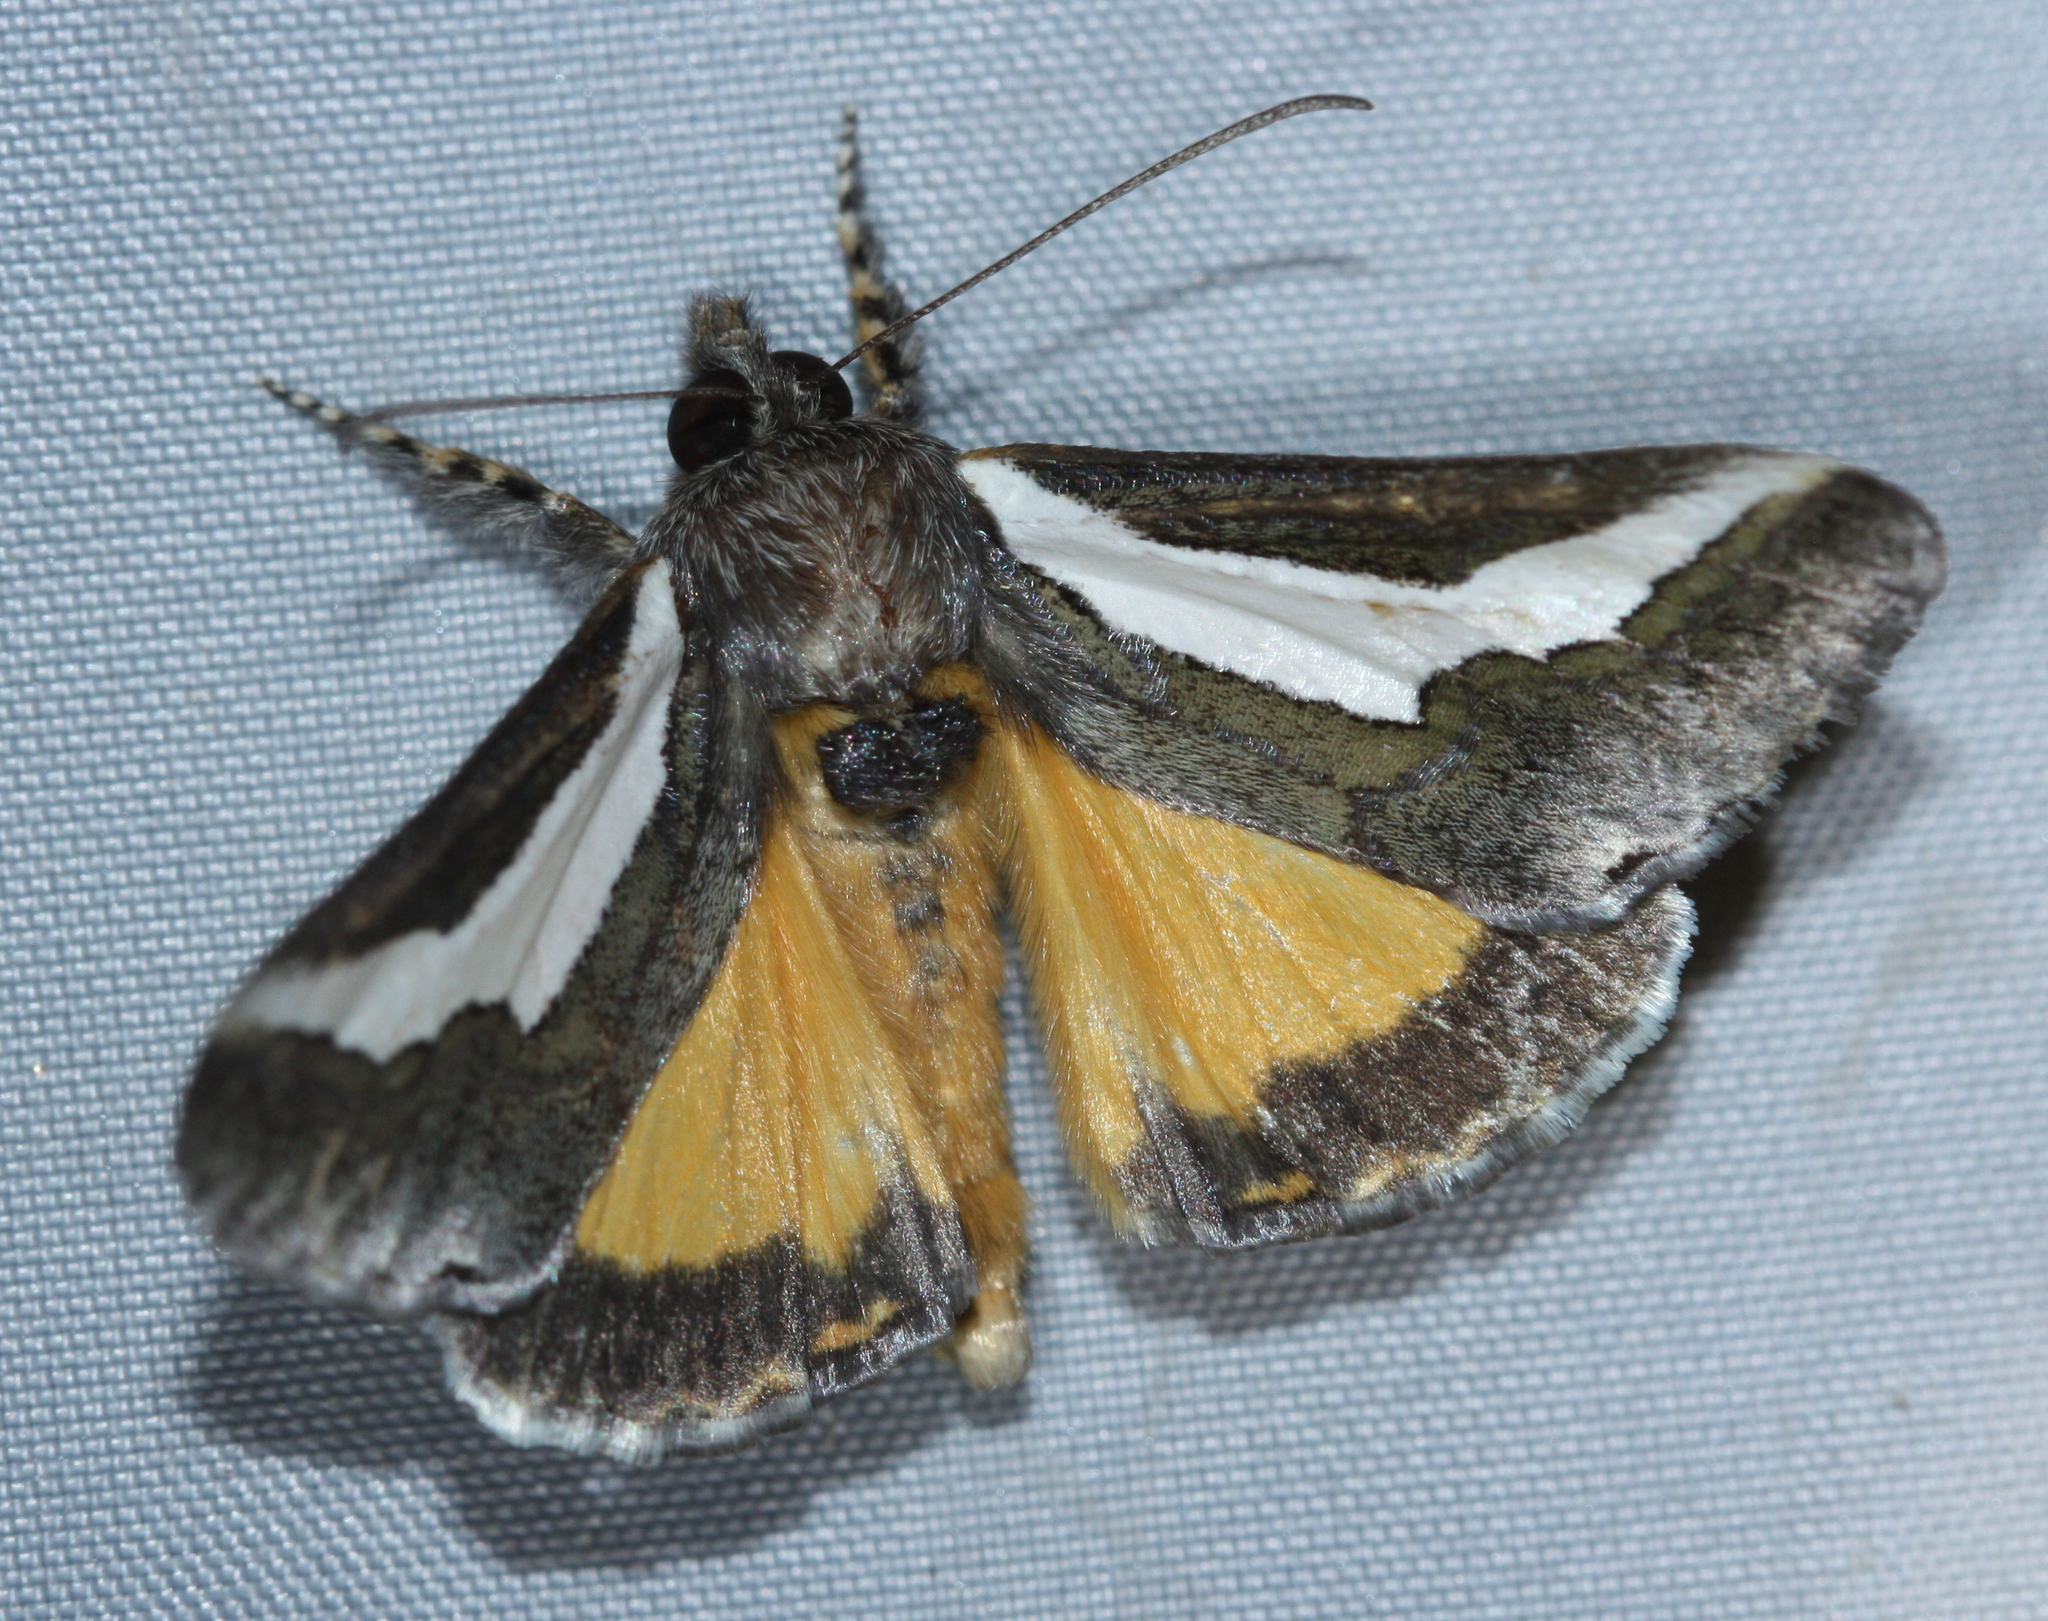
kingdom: Animalia
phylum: Arthropoda
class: Insecta
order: Lepidoptera
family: Noctuidae
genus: Euscirrhopterus
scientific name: Euscirrhopterus cosyra
